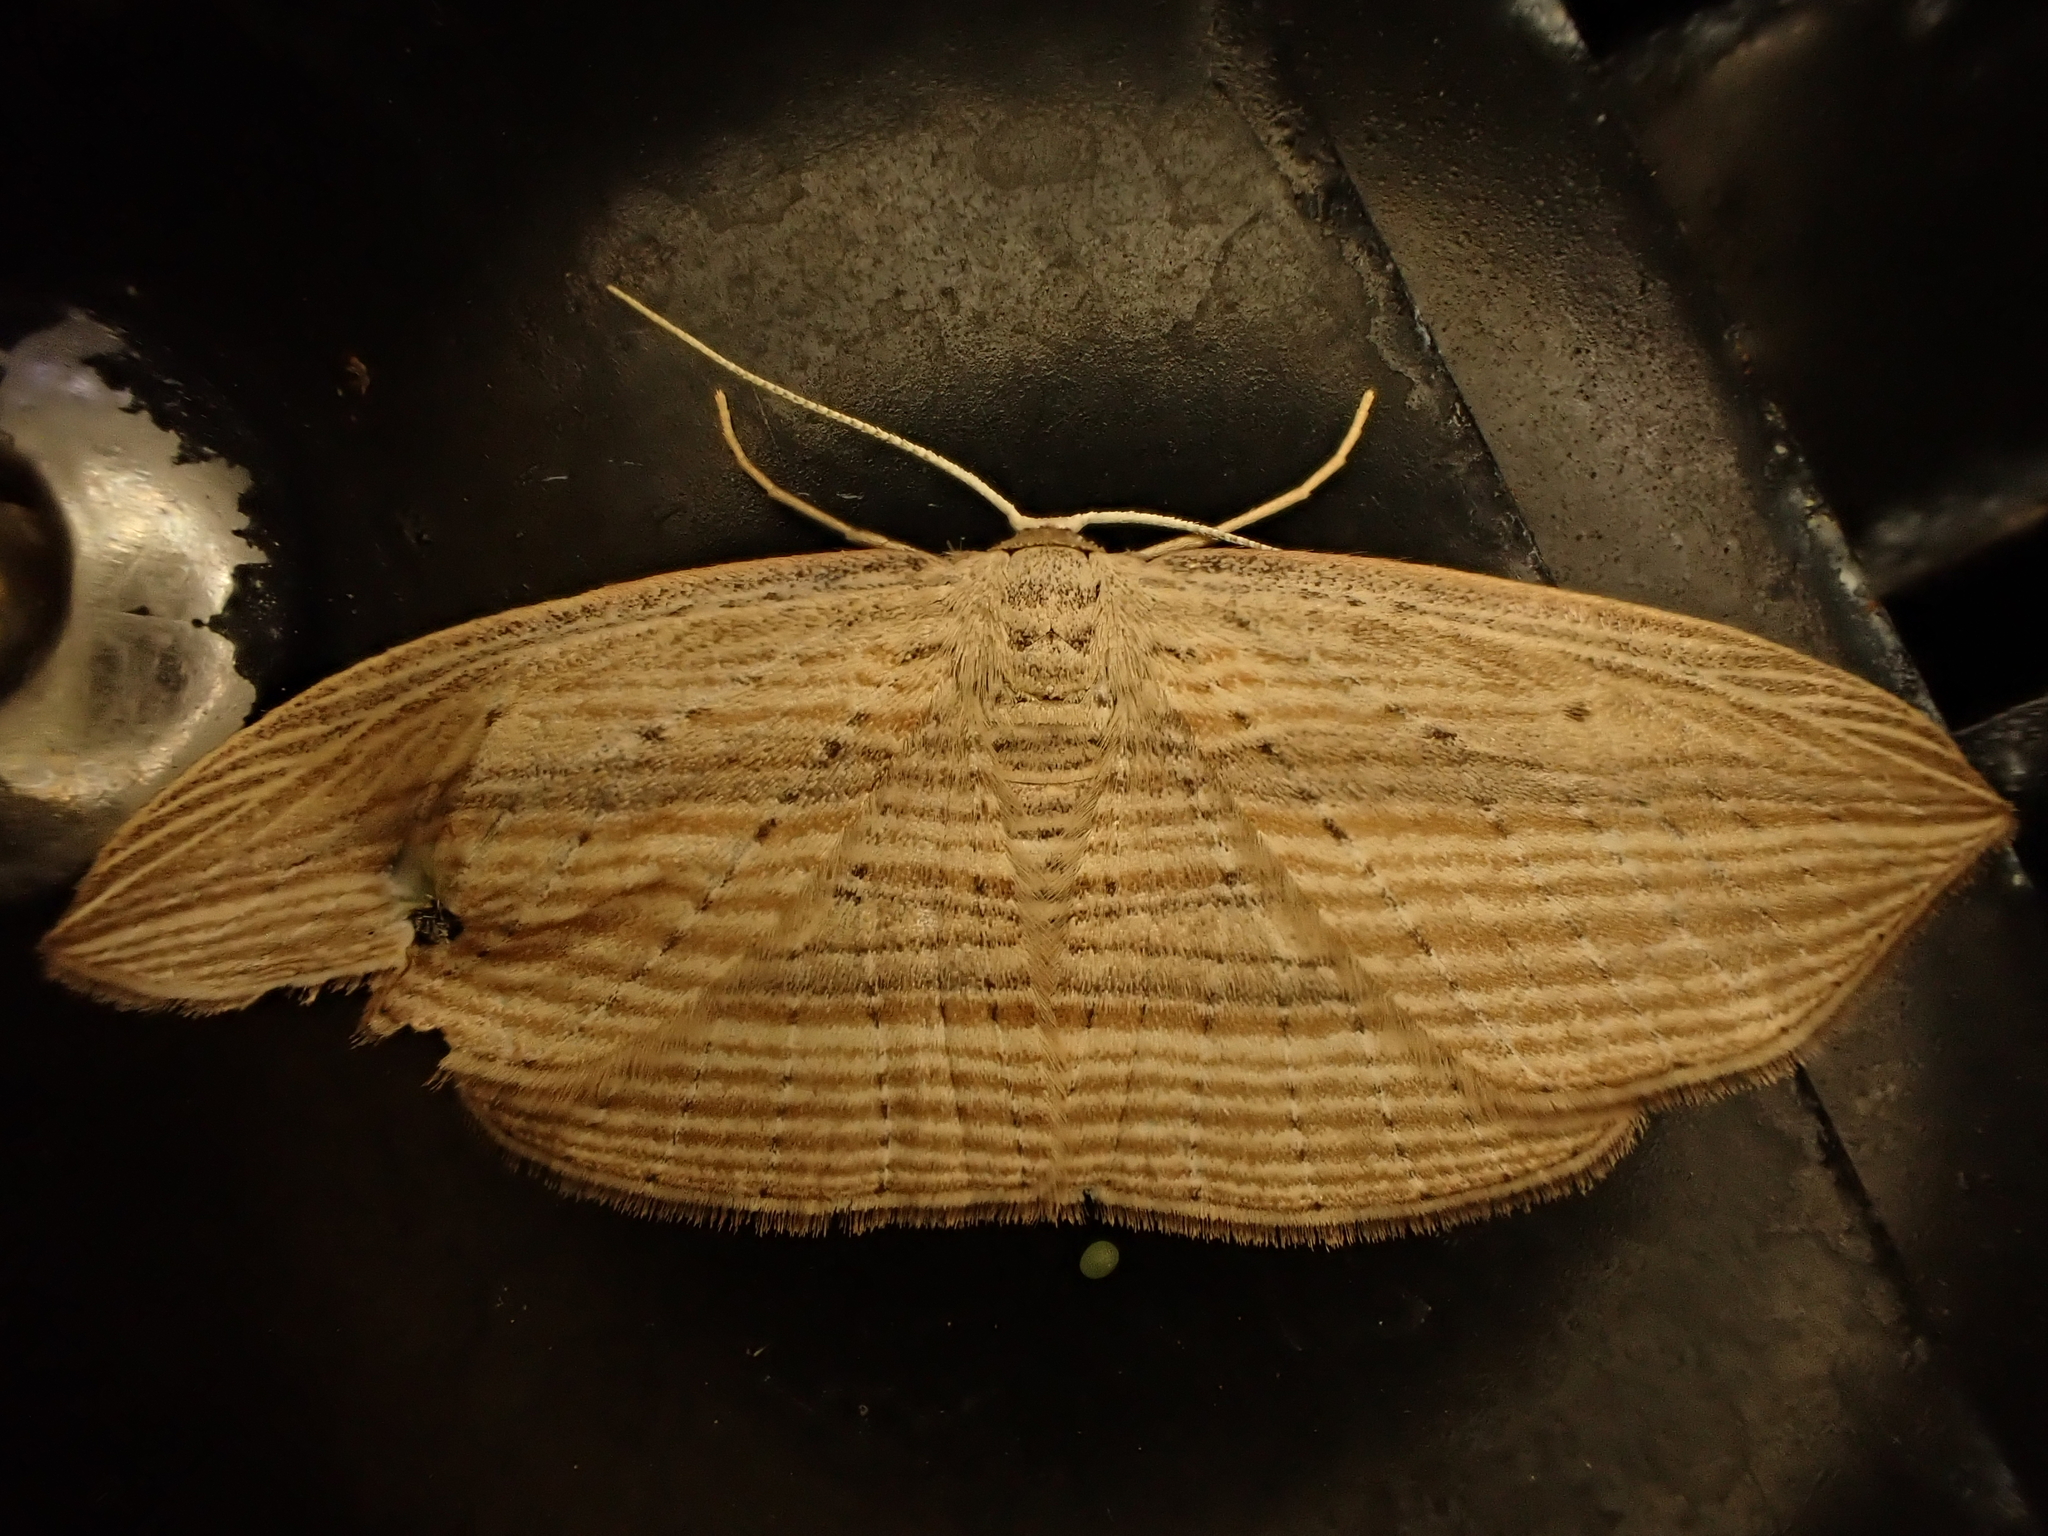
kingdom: Animalia
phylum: Arthropoda
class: Insecta
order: Lepidoptera
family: Geometridae
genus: Epiphryne
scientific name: Epiphryne verriculata
